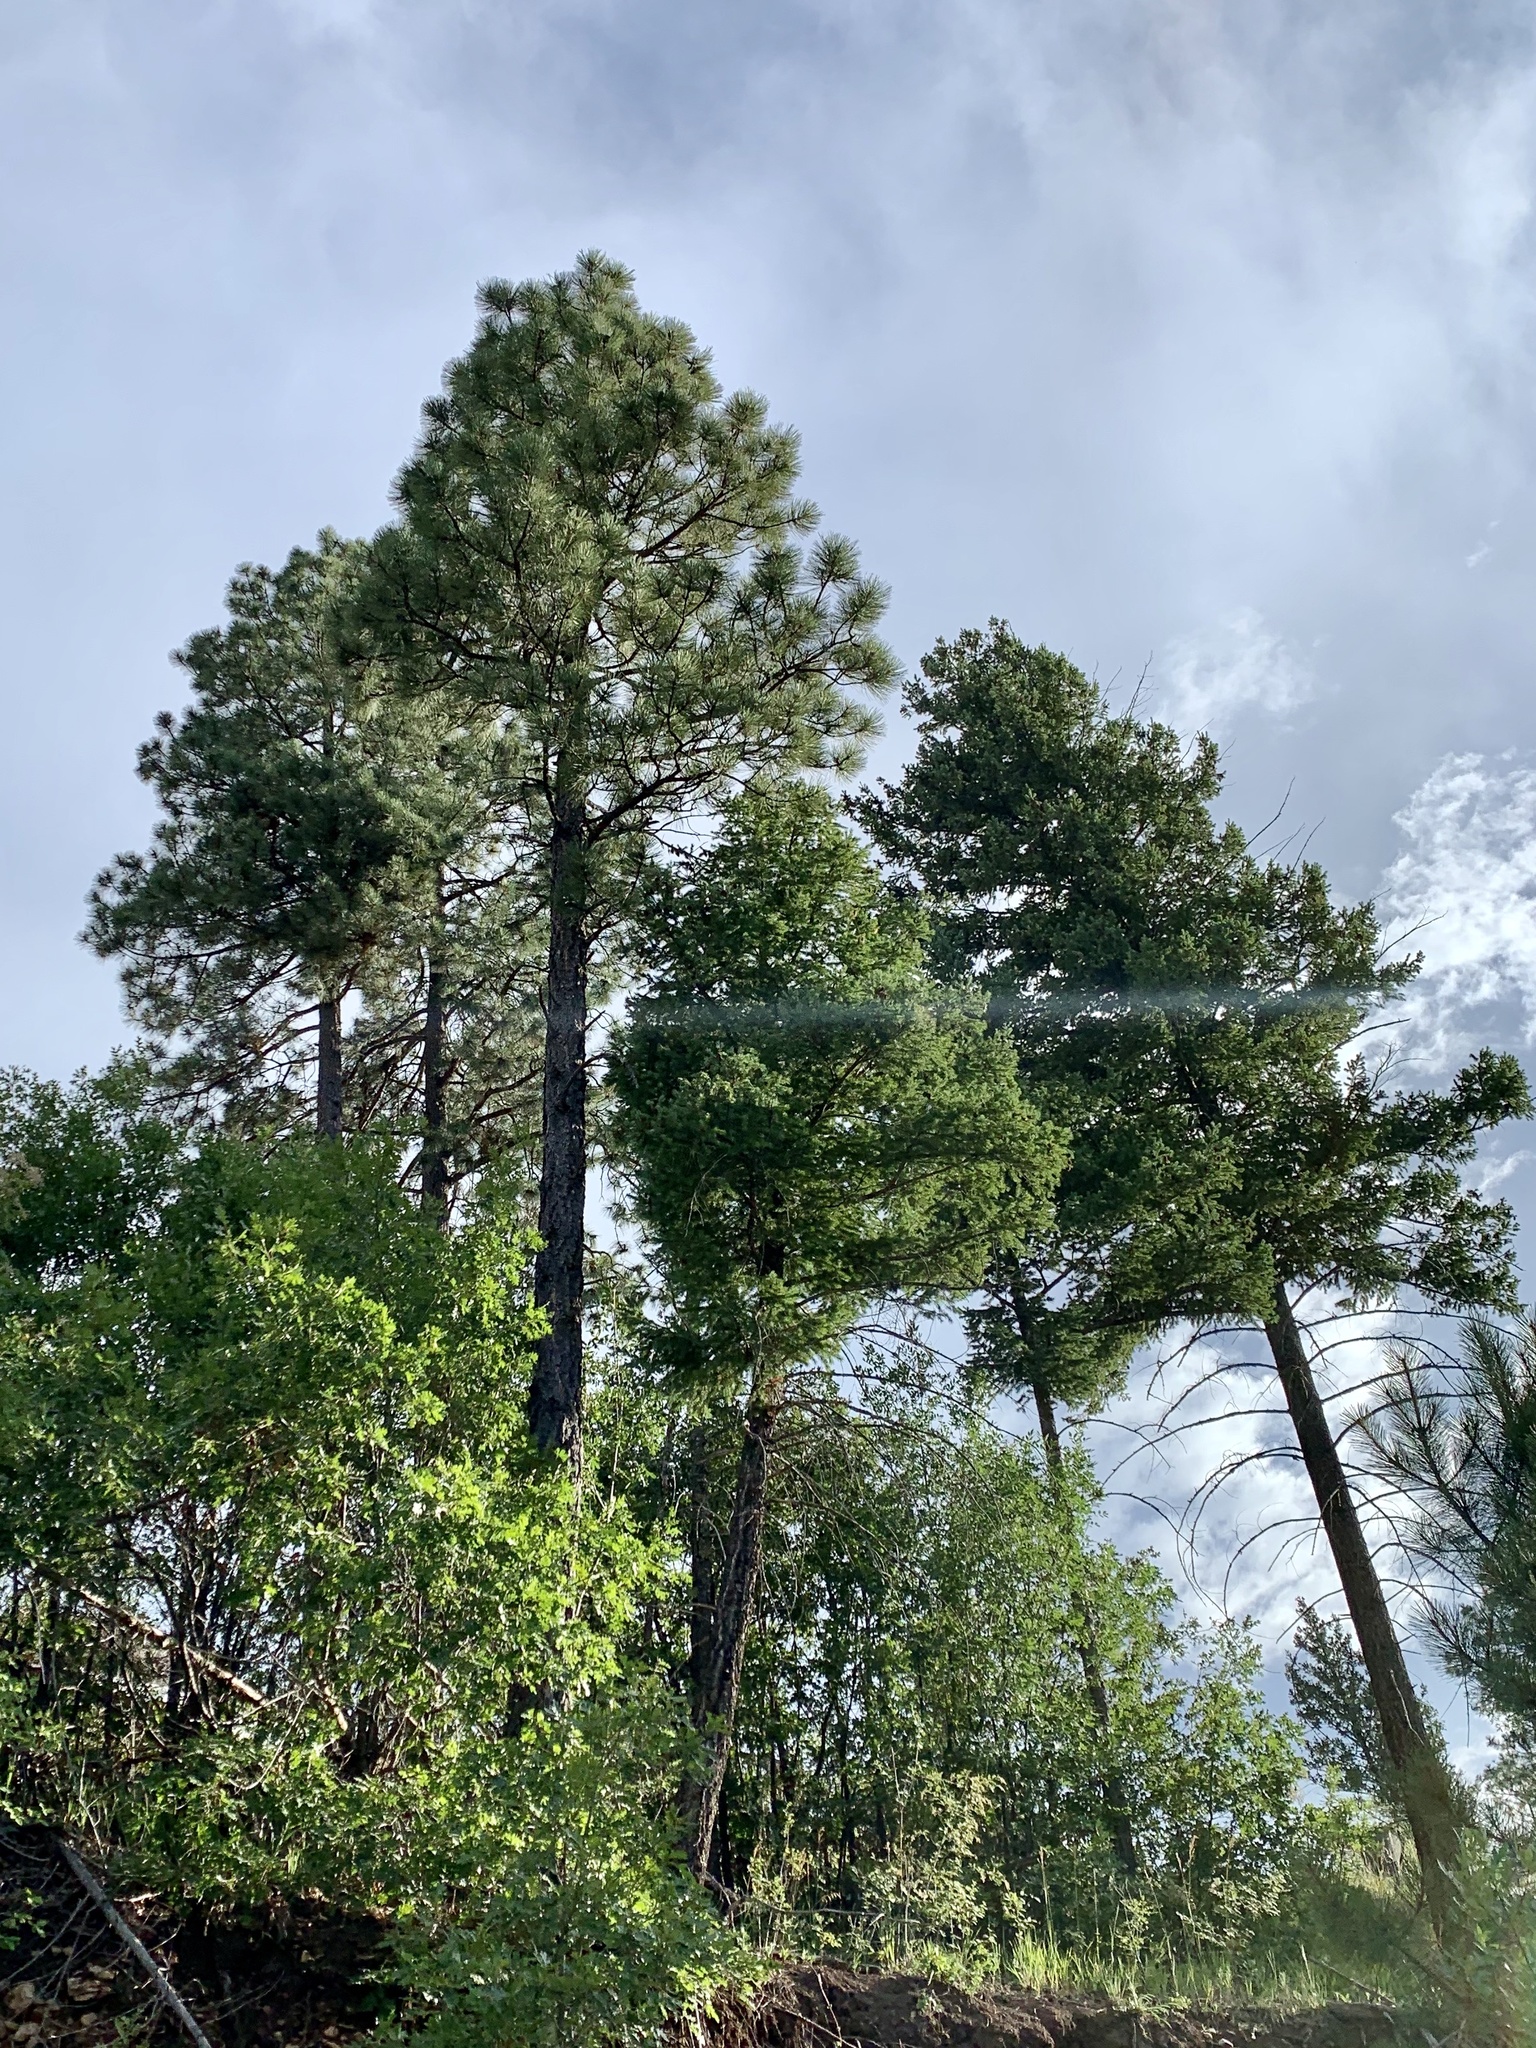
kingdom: Plantae
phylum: Tracheophyta
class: Pinopsida
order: Pinales
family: Pinaceae
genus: Pinus
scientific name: Pinus ponderosa
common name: Western yellow-pine
